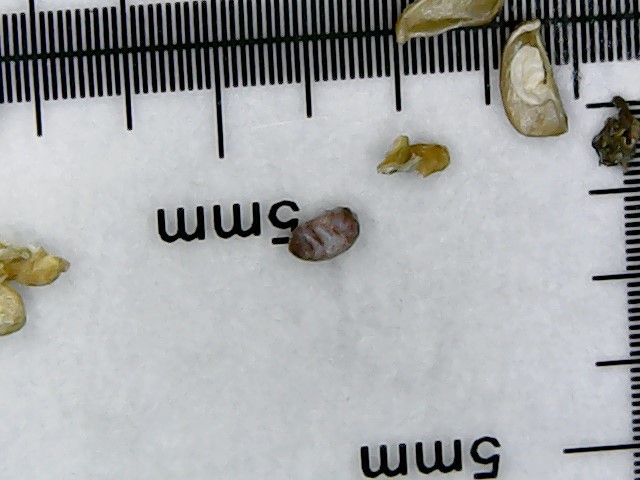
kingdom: Plantae
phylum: Tracheophyta
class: Magnoliopsida
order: Malpighiales
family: Euphorbiaceae
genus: Euphorbia
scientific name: Euphorbia maculata
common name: Spotted spurge
